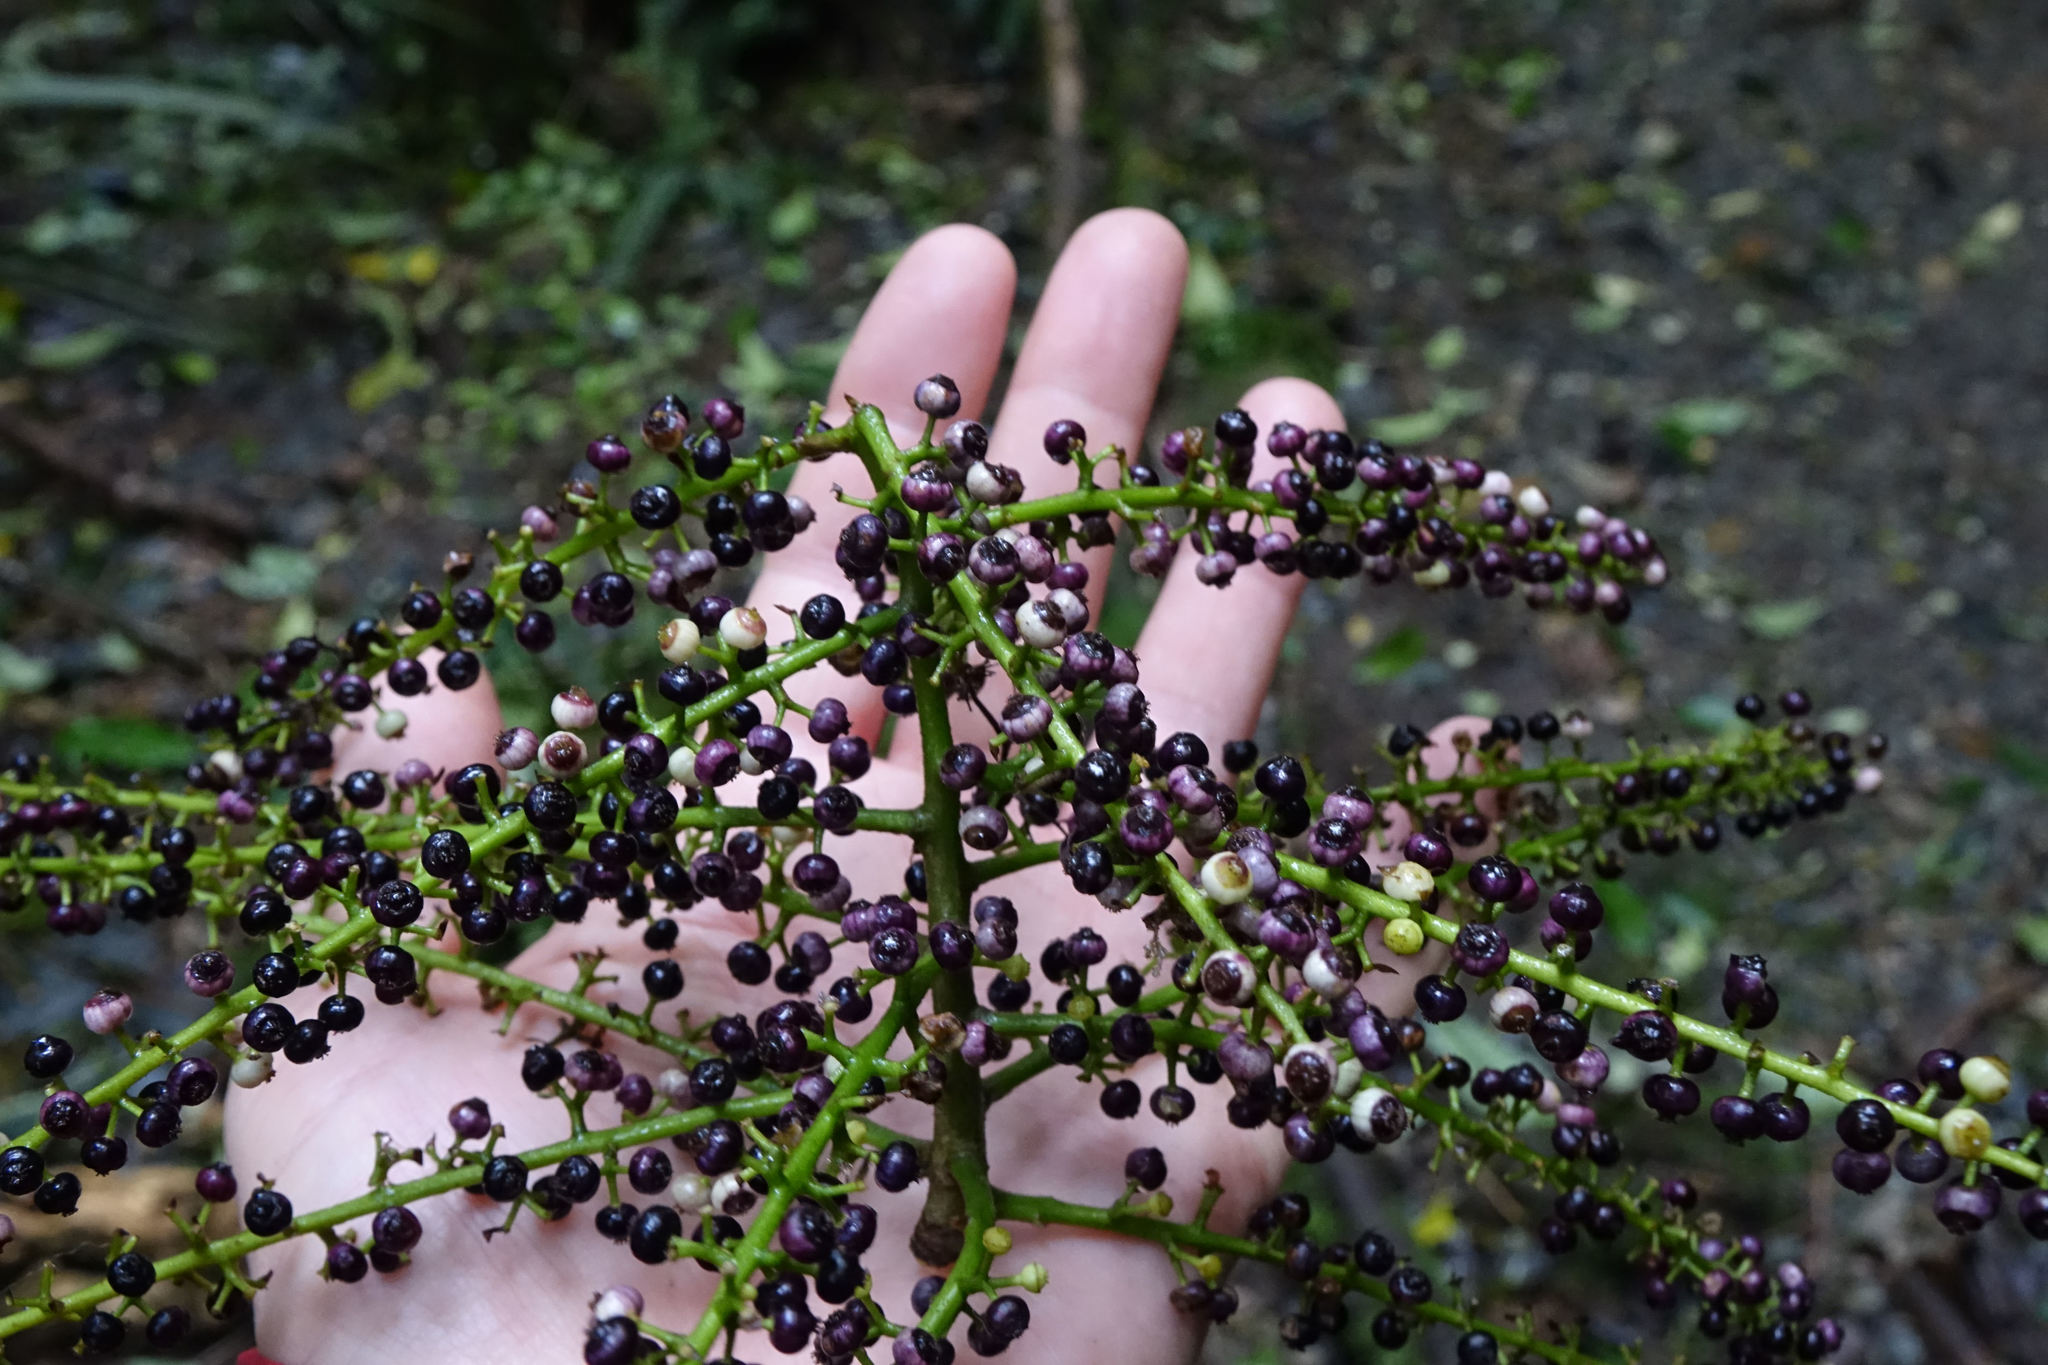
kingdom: Plantae
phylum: Tracheophyta
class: Magnoliopsida
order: Apiales
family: Araliaceae
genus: Schefflera
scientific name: Schefflera digitata
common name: Pate
